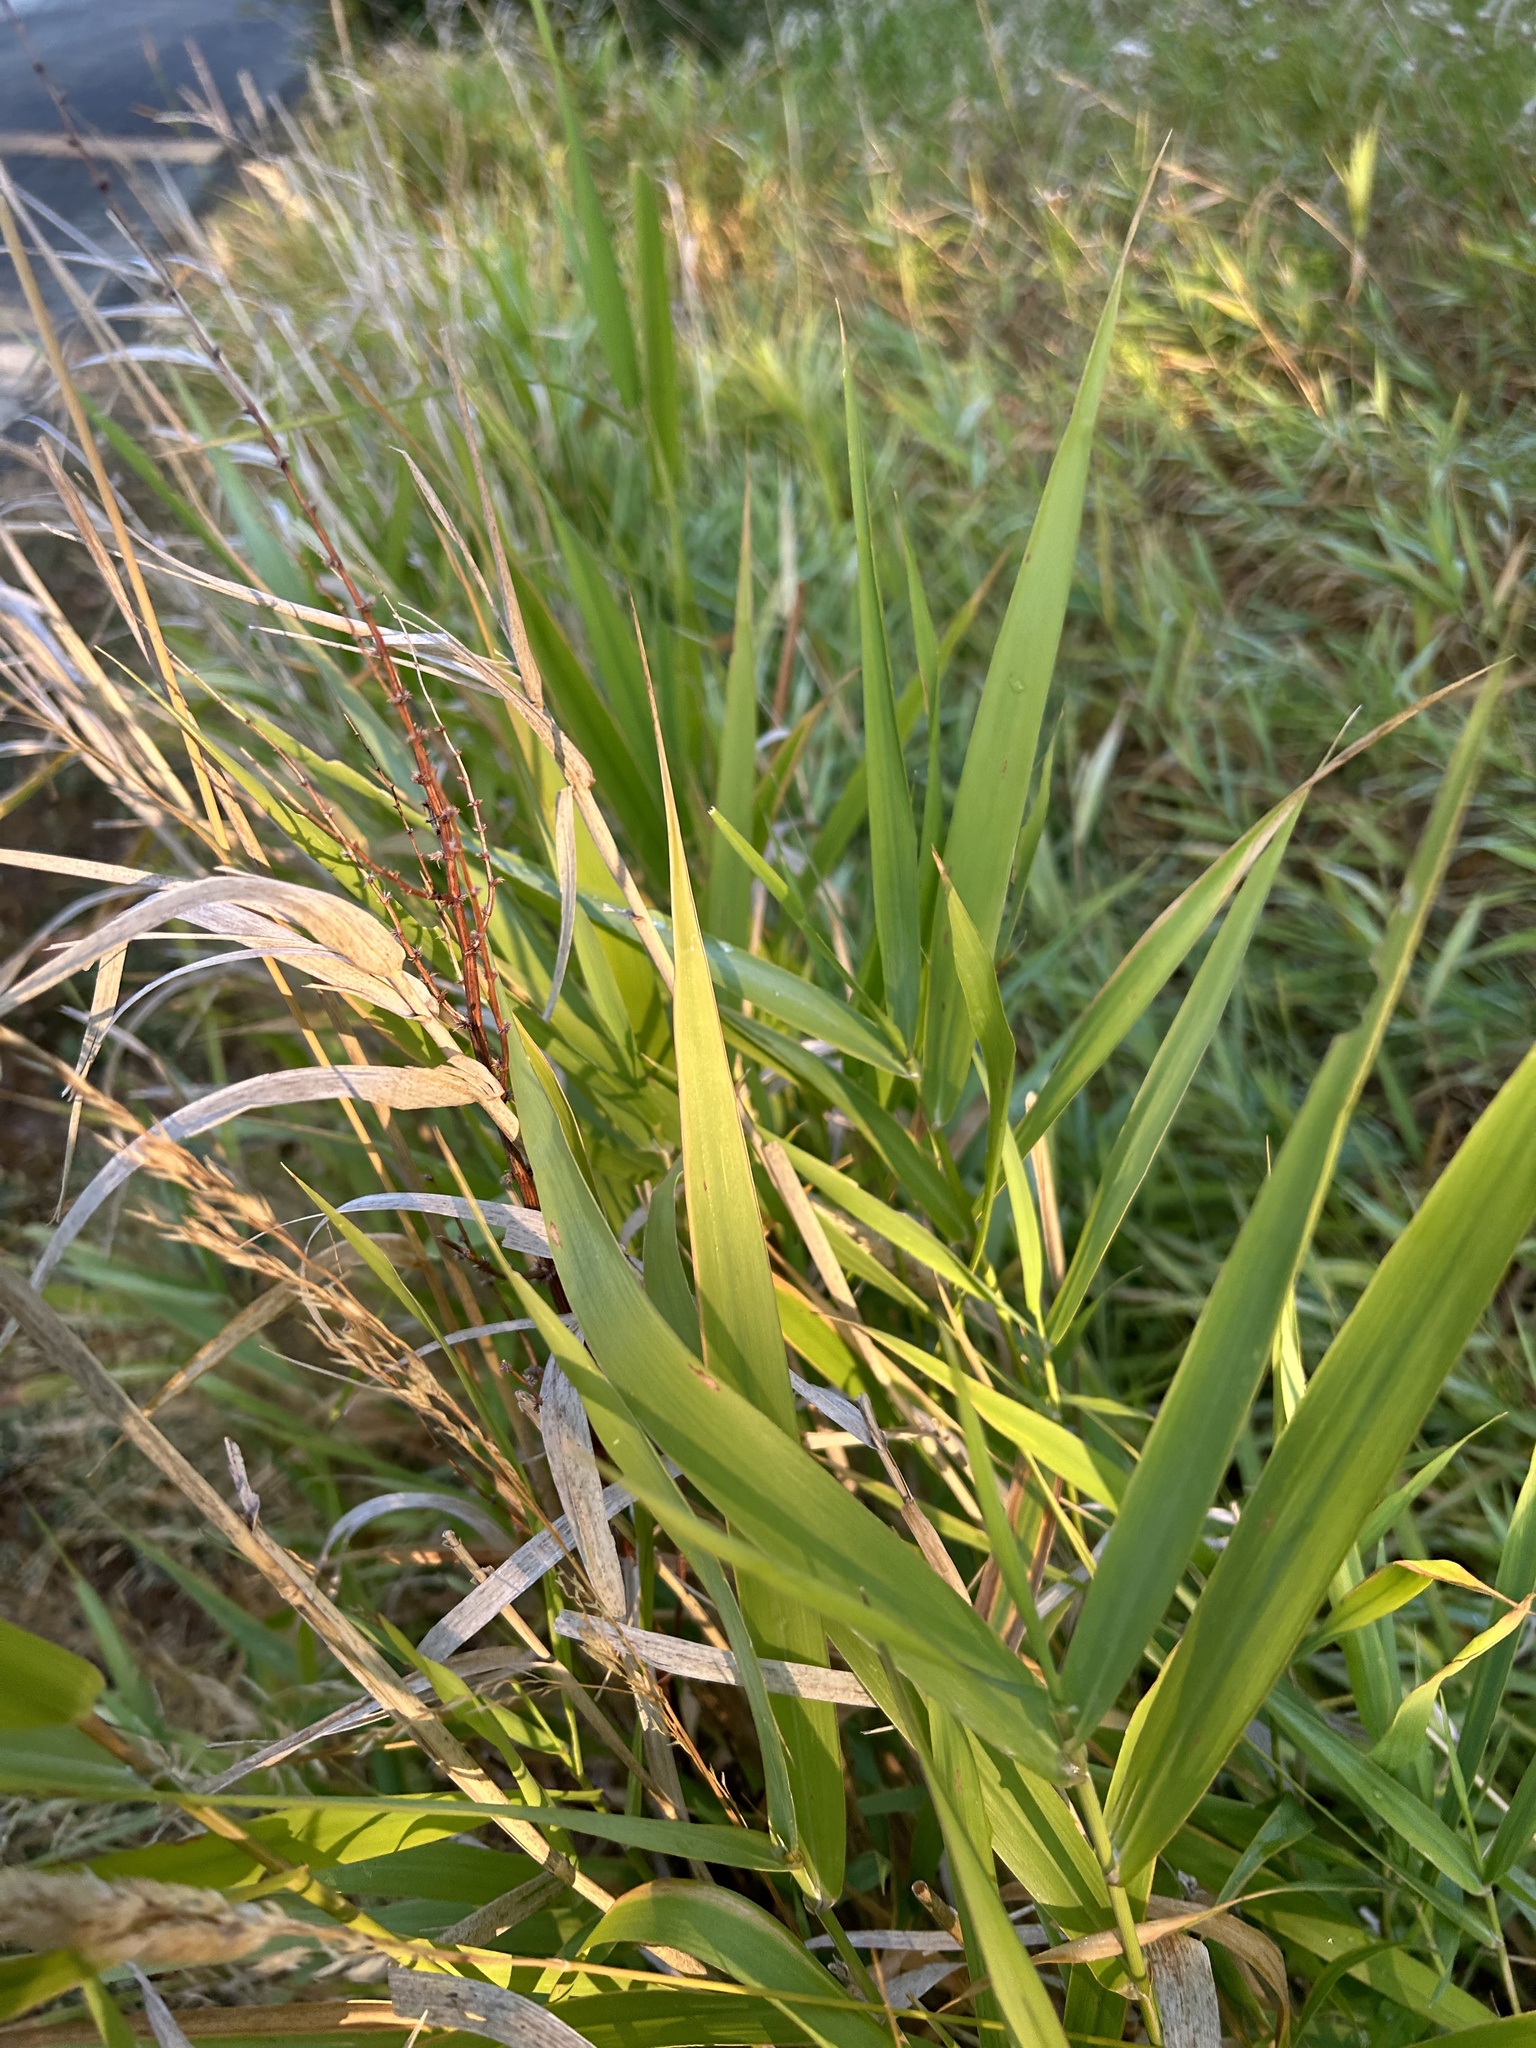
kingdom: Plantae
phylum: Tracheophyta
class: Liliopsida
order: Poales
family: Poaceae
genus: Phalaris
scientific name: Phalaris arundinacea
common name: Reed canary-grass
